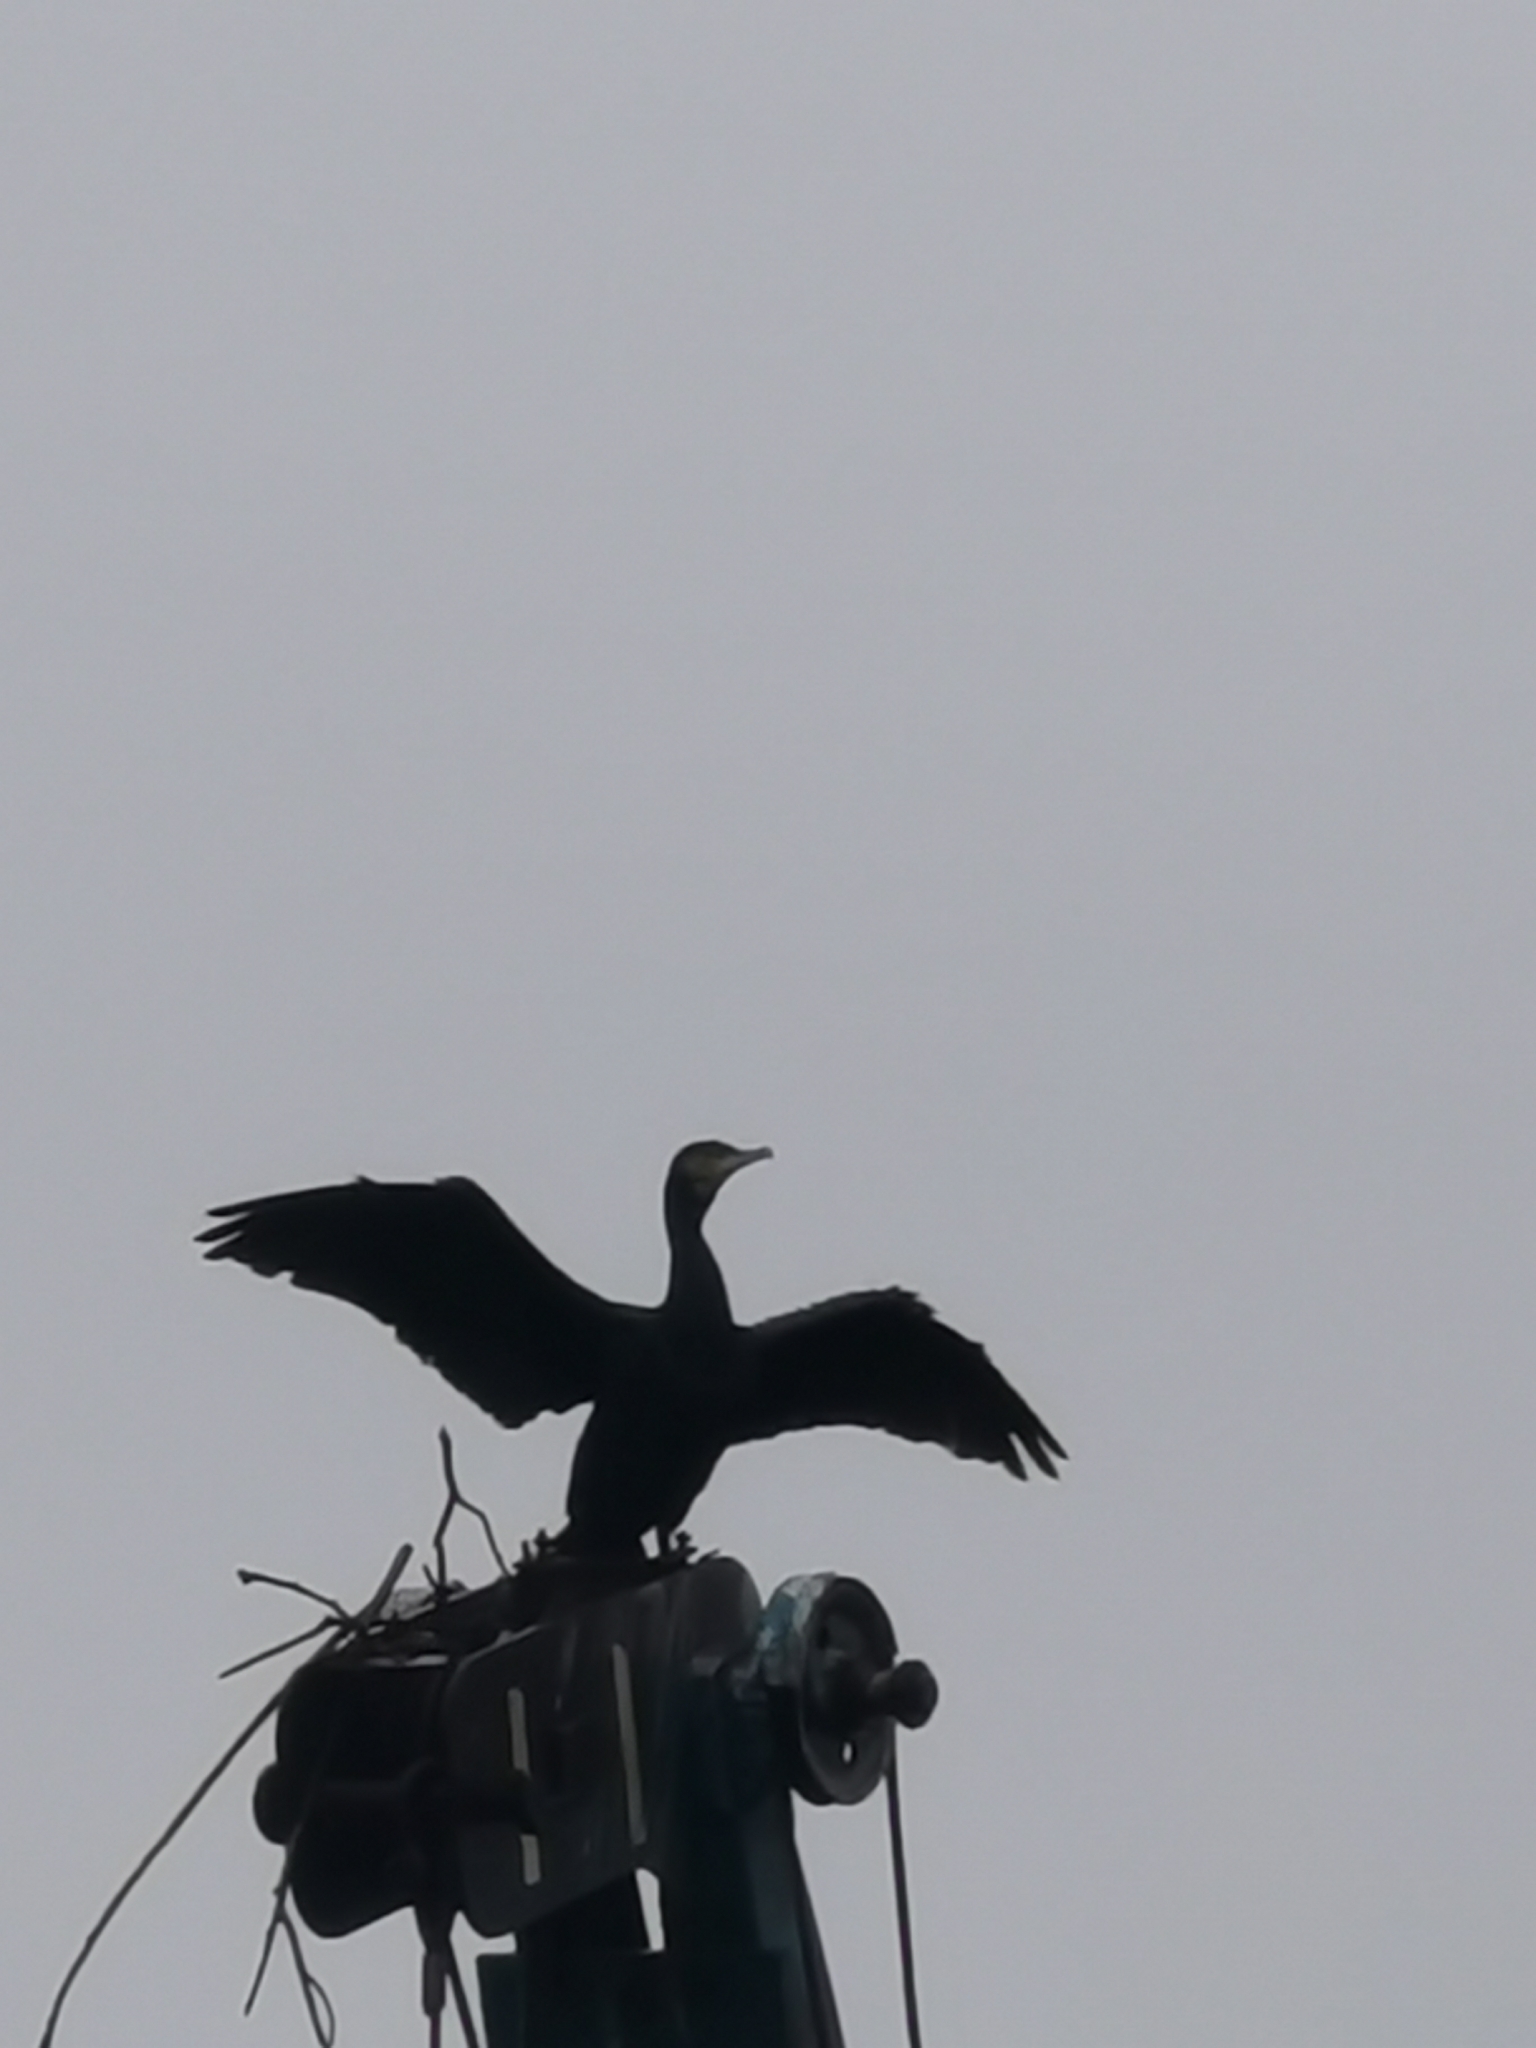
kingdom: Animalia
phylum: Chordata
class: Aves
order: Suliformes
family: Phalacrocoracidae
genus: Phalacrocorax
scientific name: Phalacrocorax carbo
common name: Great cormorant
